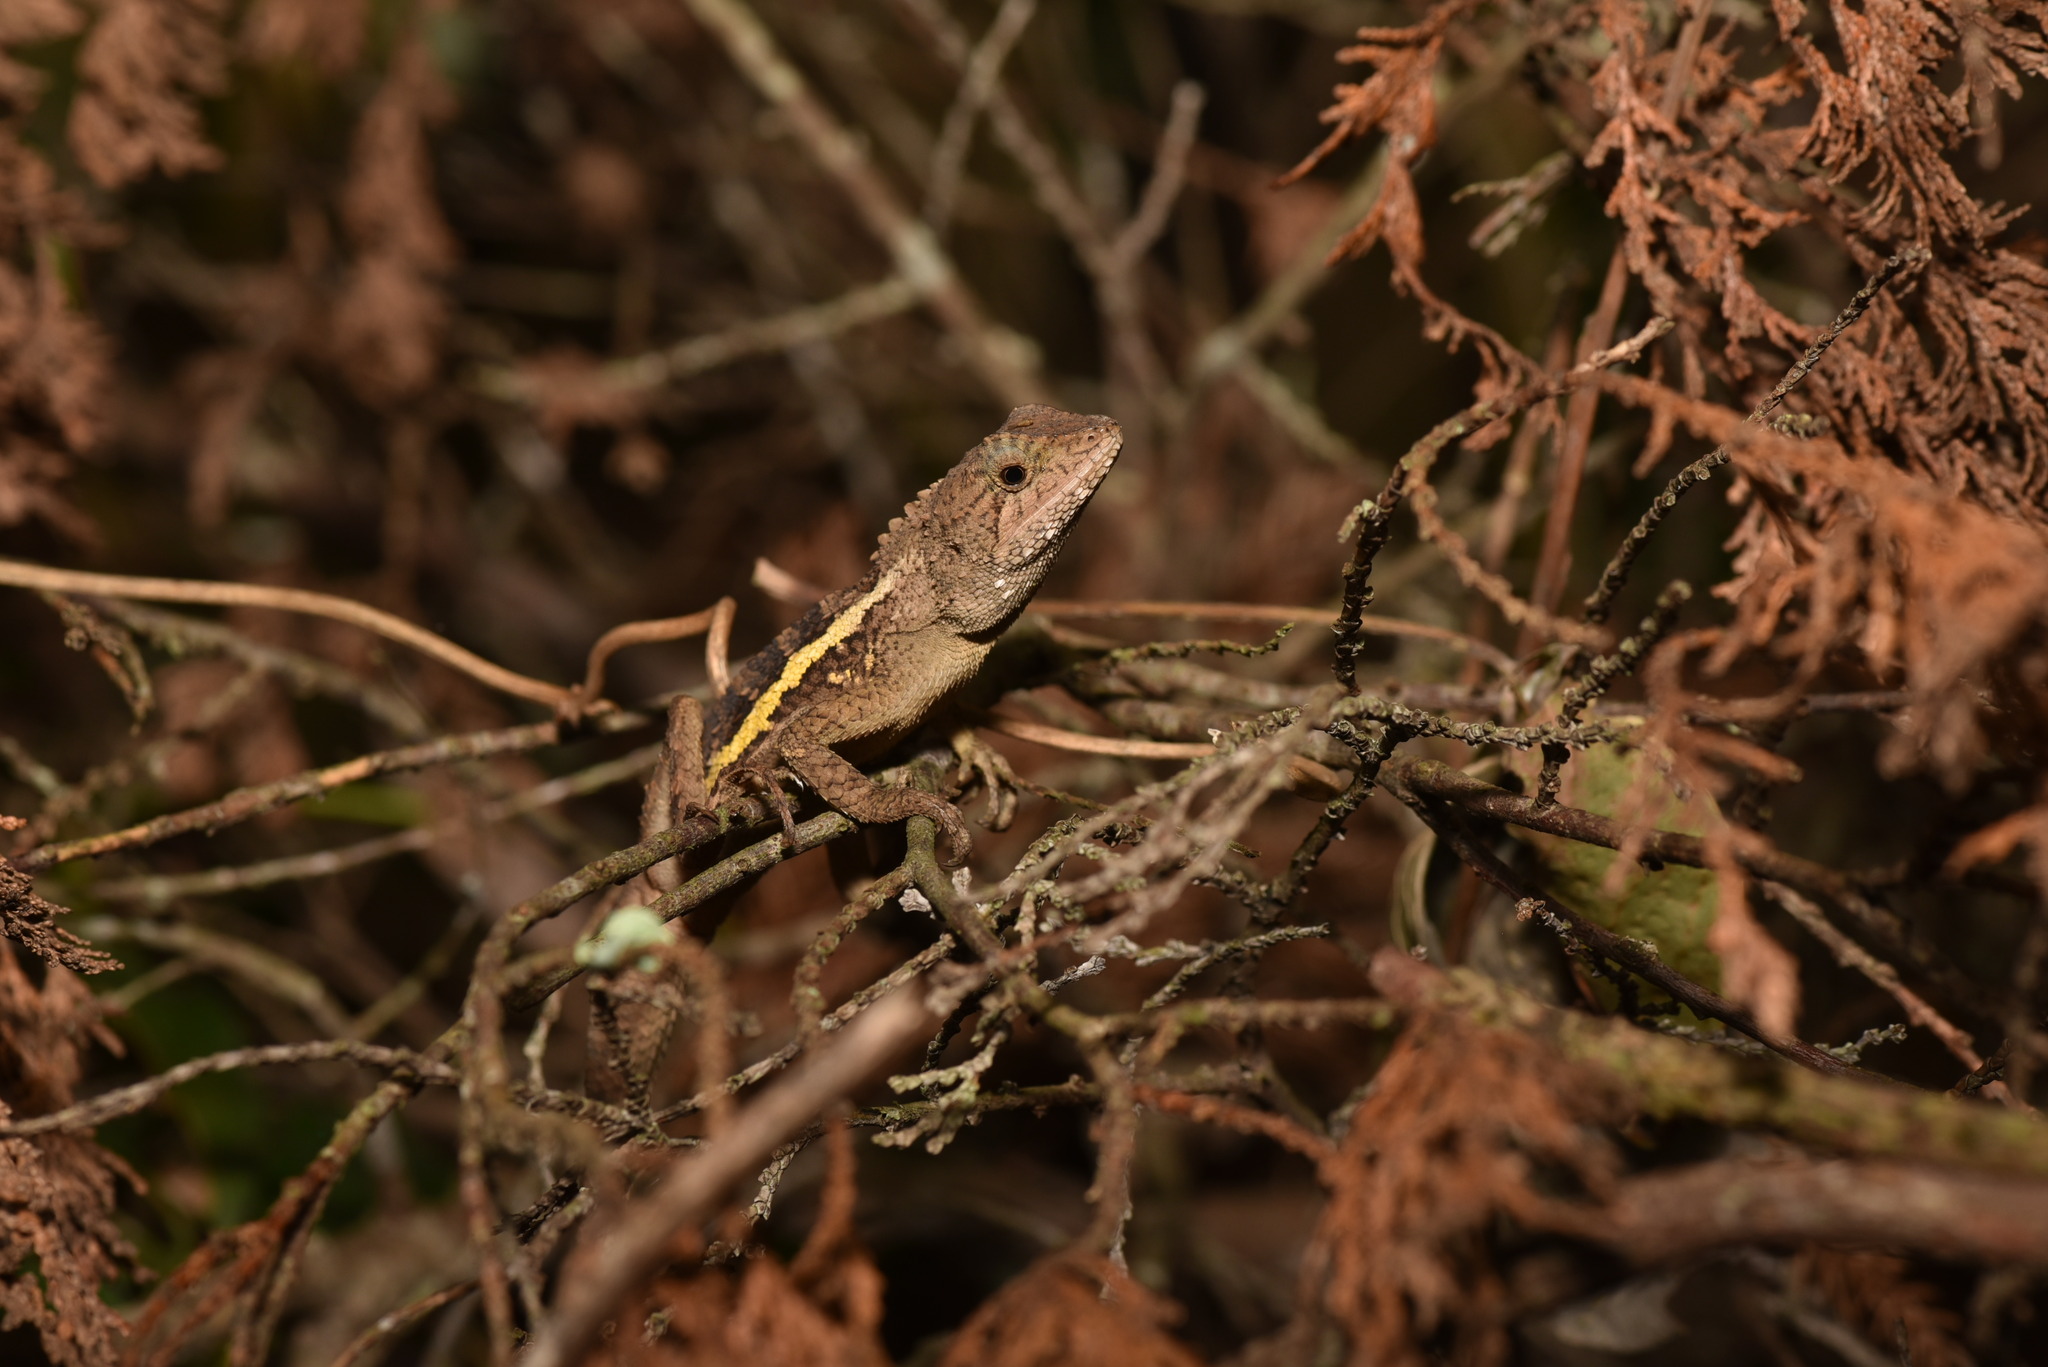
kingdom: Animalia
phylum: Chordata
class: Squamata
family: Agamidae
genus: Diploderma
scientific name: Diploderma swinhonis
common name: Taiwan japalure
